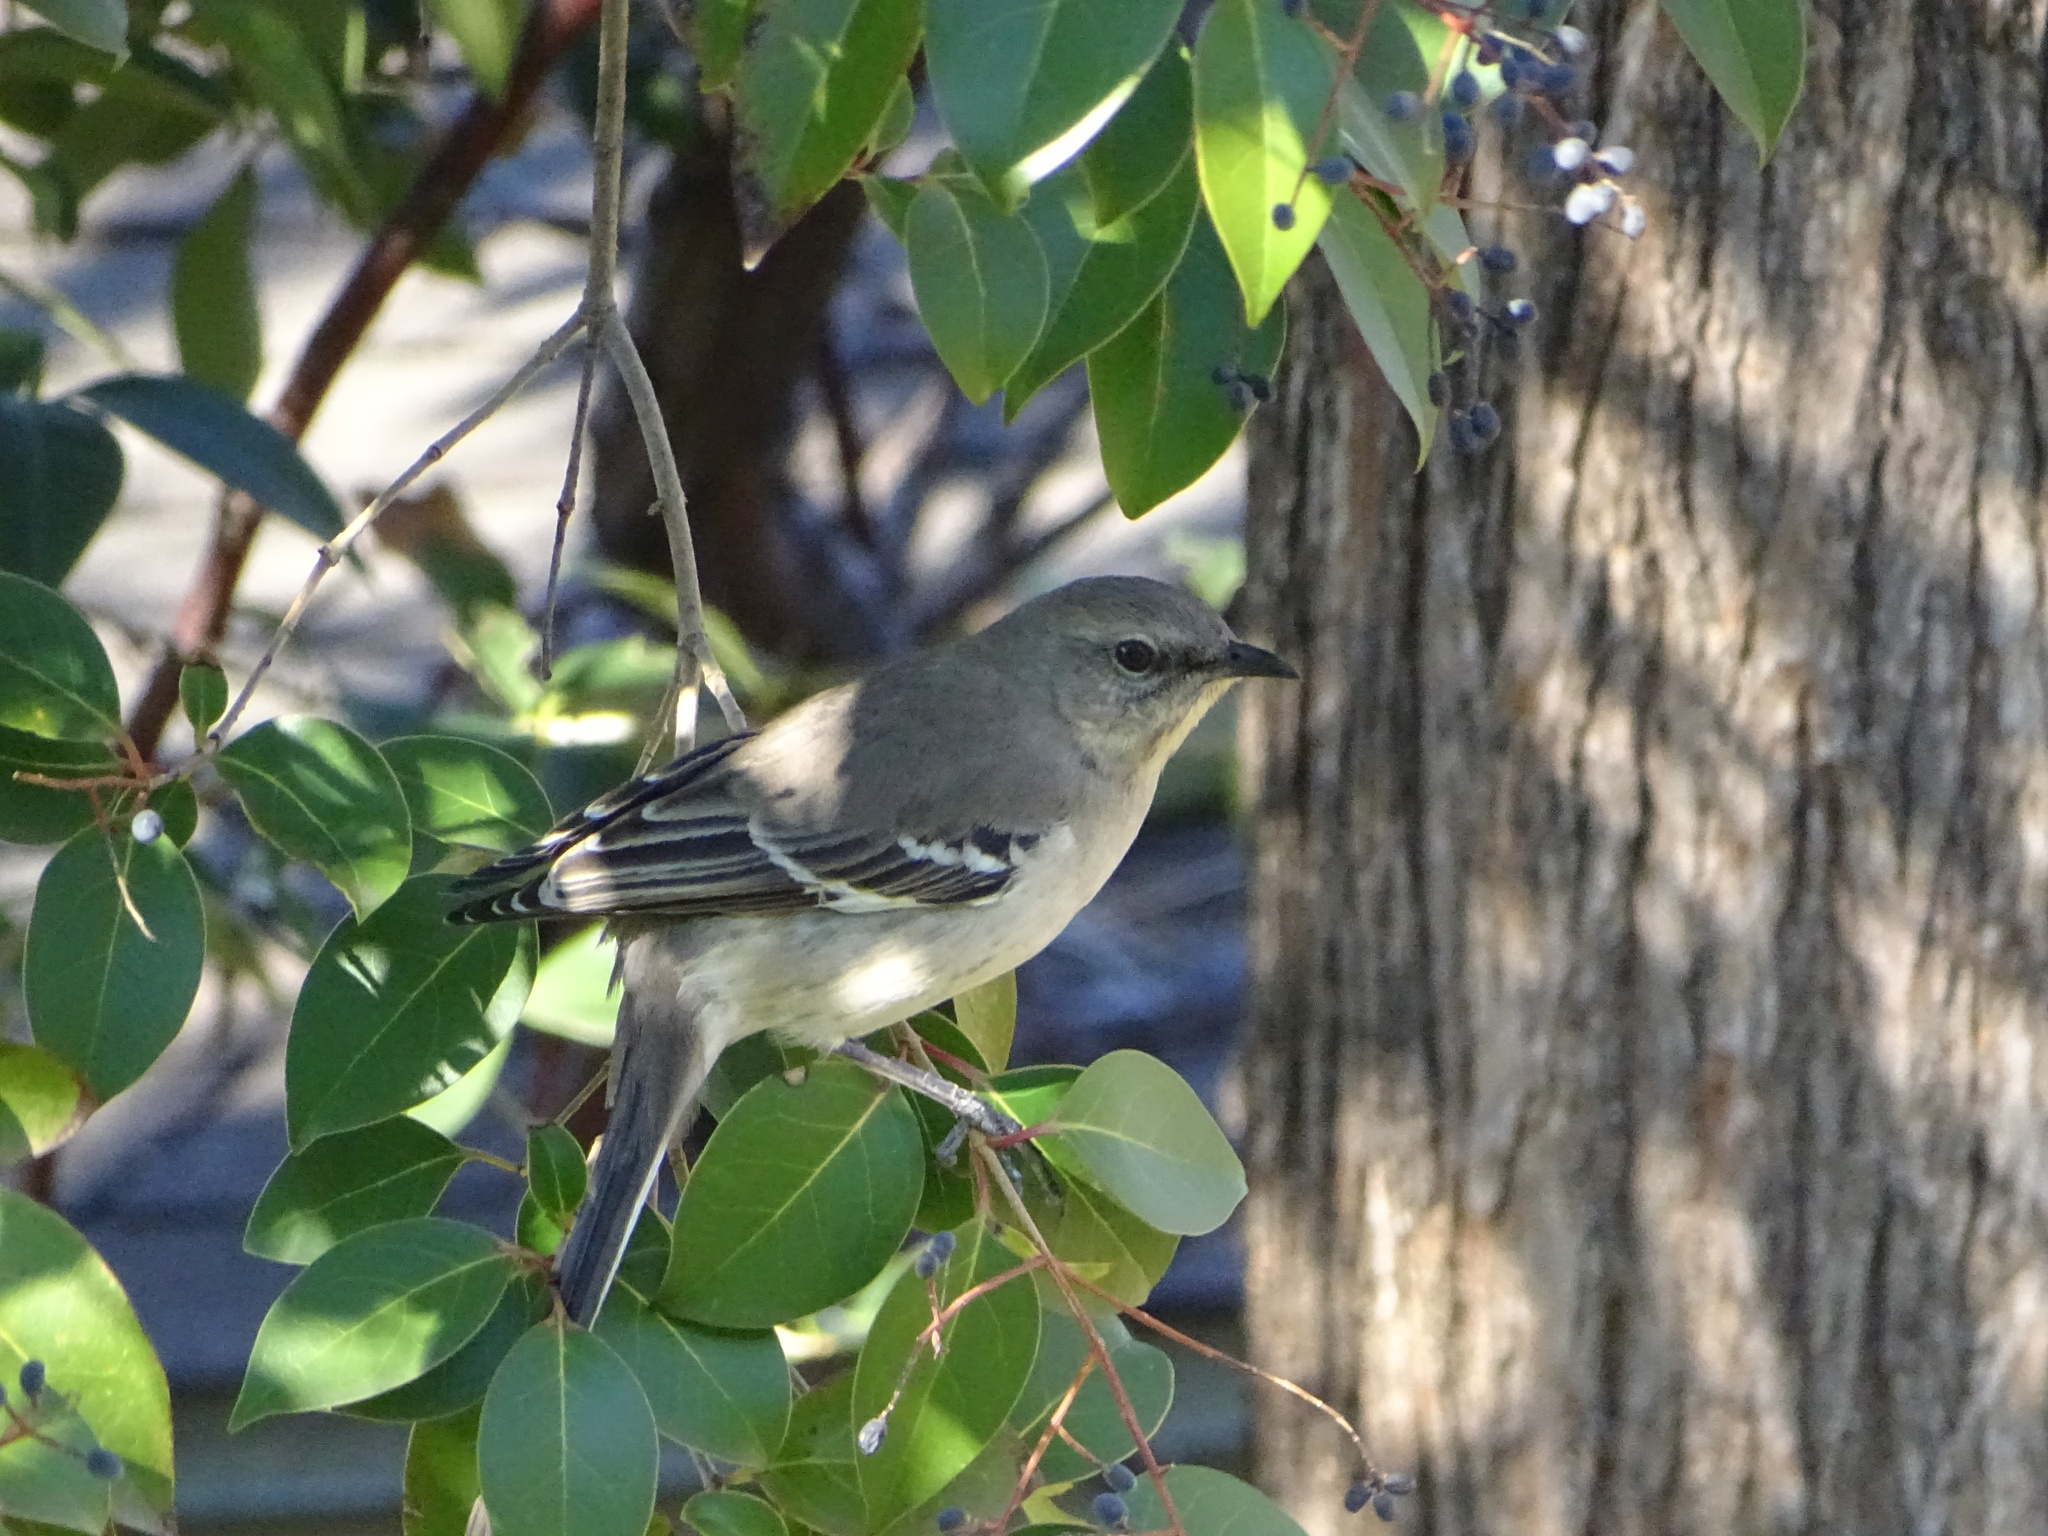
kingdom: Animalia
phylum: Chordata
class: Aves
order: Passeriformes
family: Mimidae
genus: Mimus
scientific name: Mimus polyglottos
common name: Northern mockingbird
